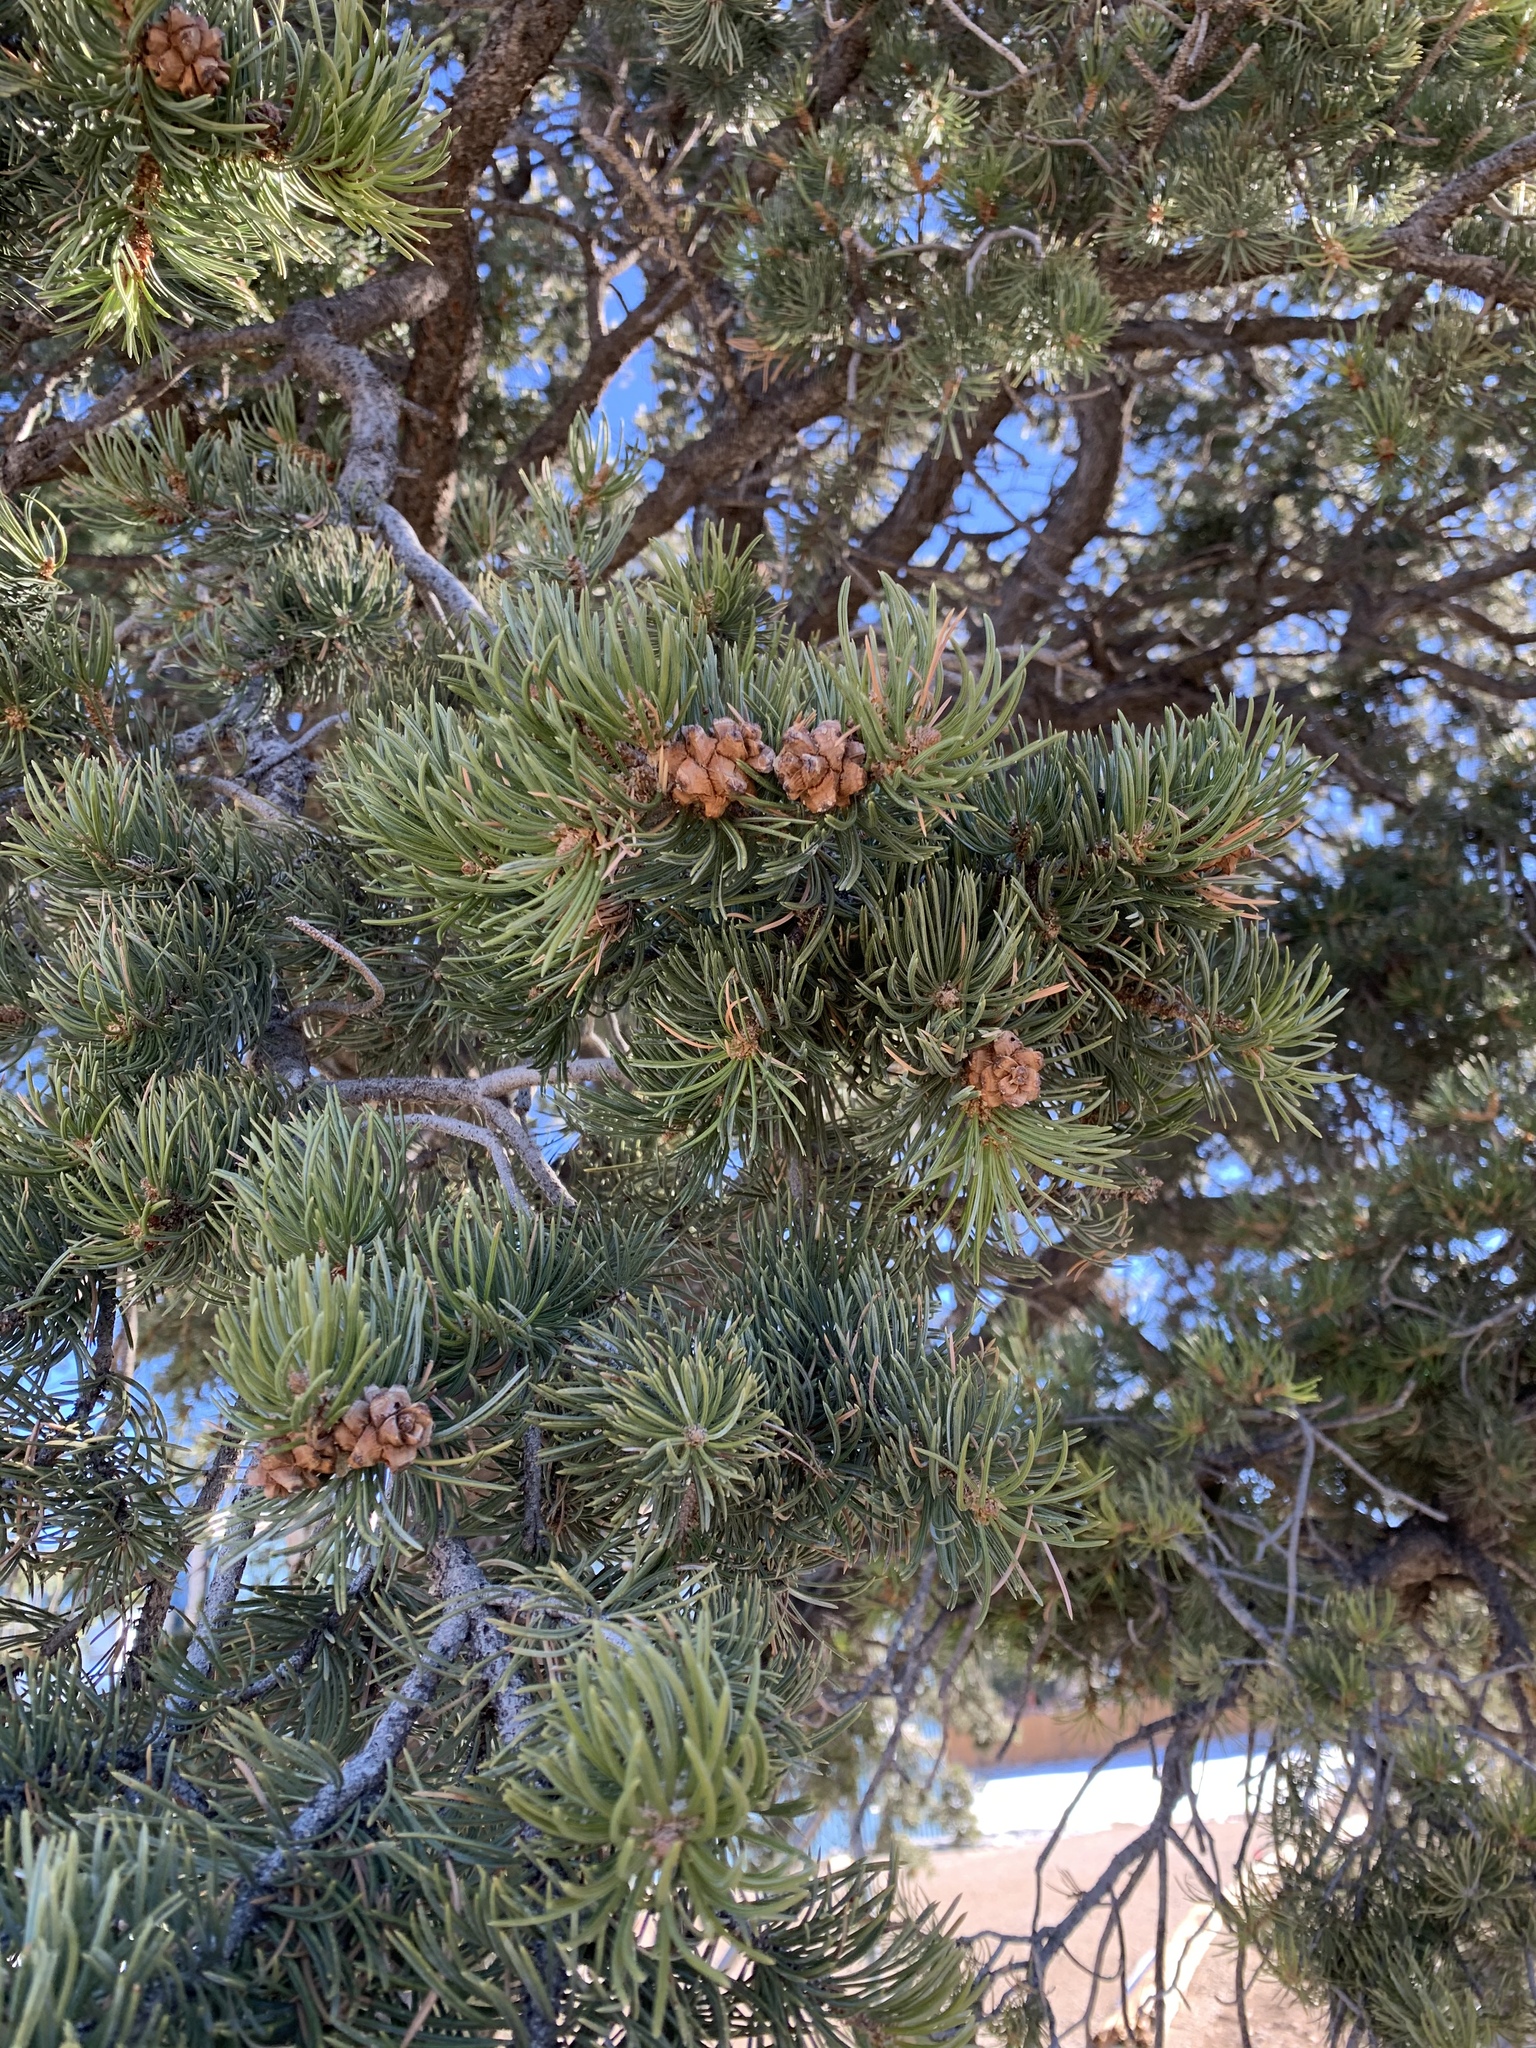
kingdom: Plantae
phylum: Tracheophyta
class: Pinopsida
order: Pinales
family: Pinaceae
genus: Pinus
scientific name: Pinus edulis
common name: Colorado pinyon
